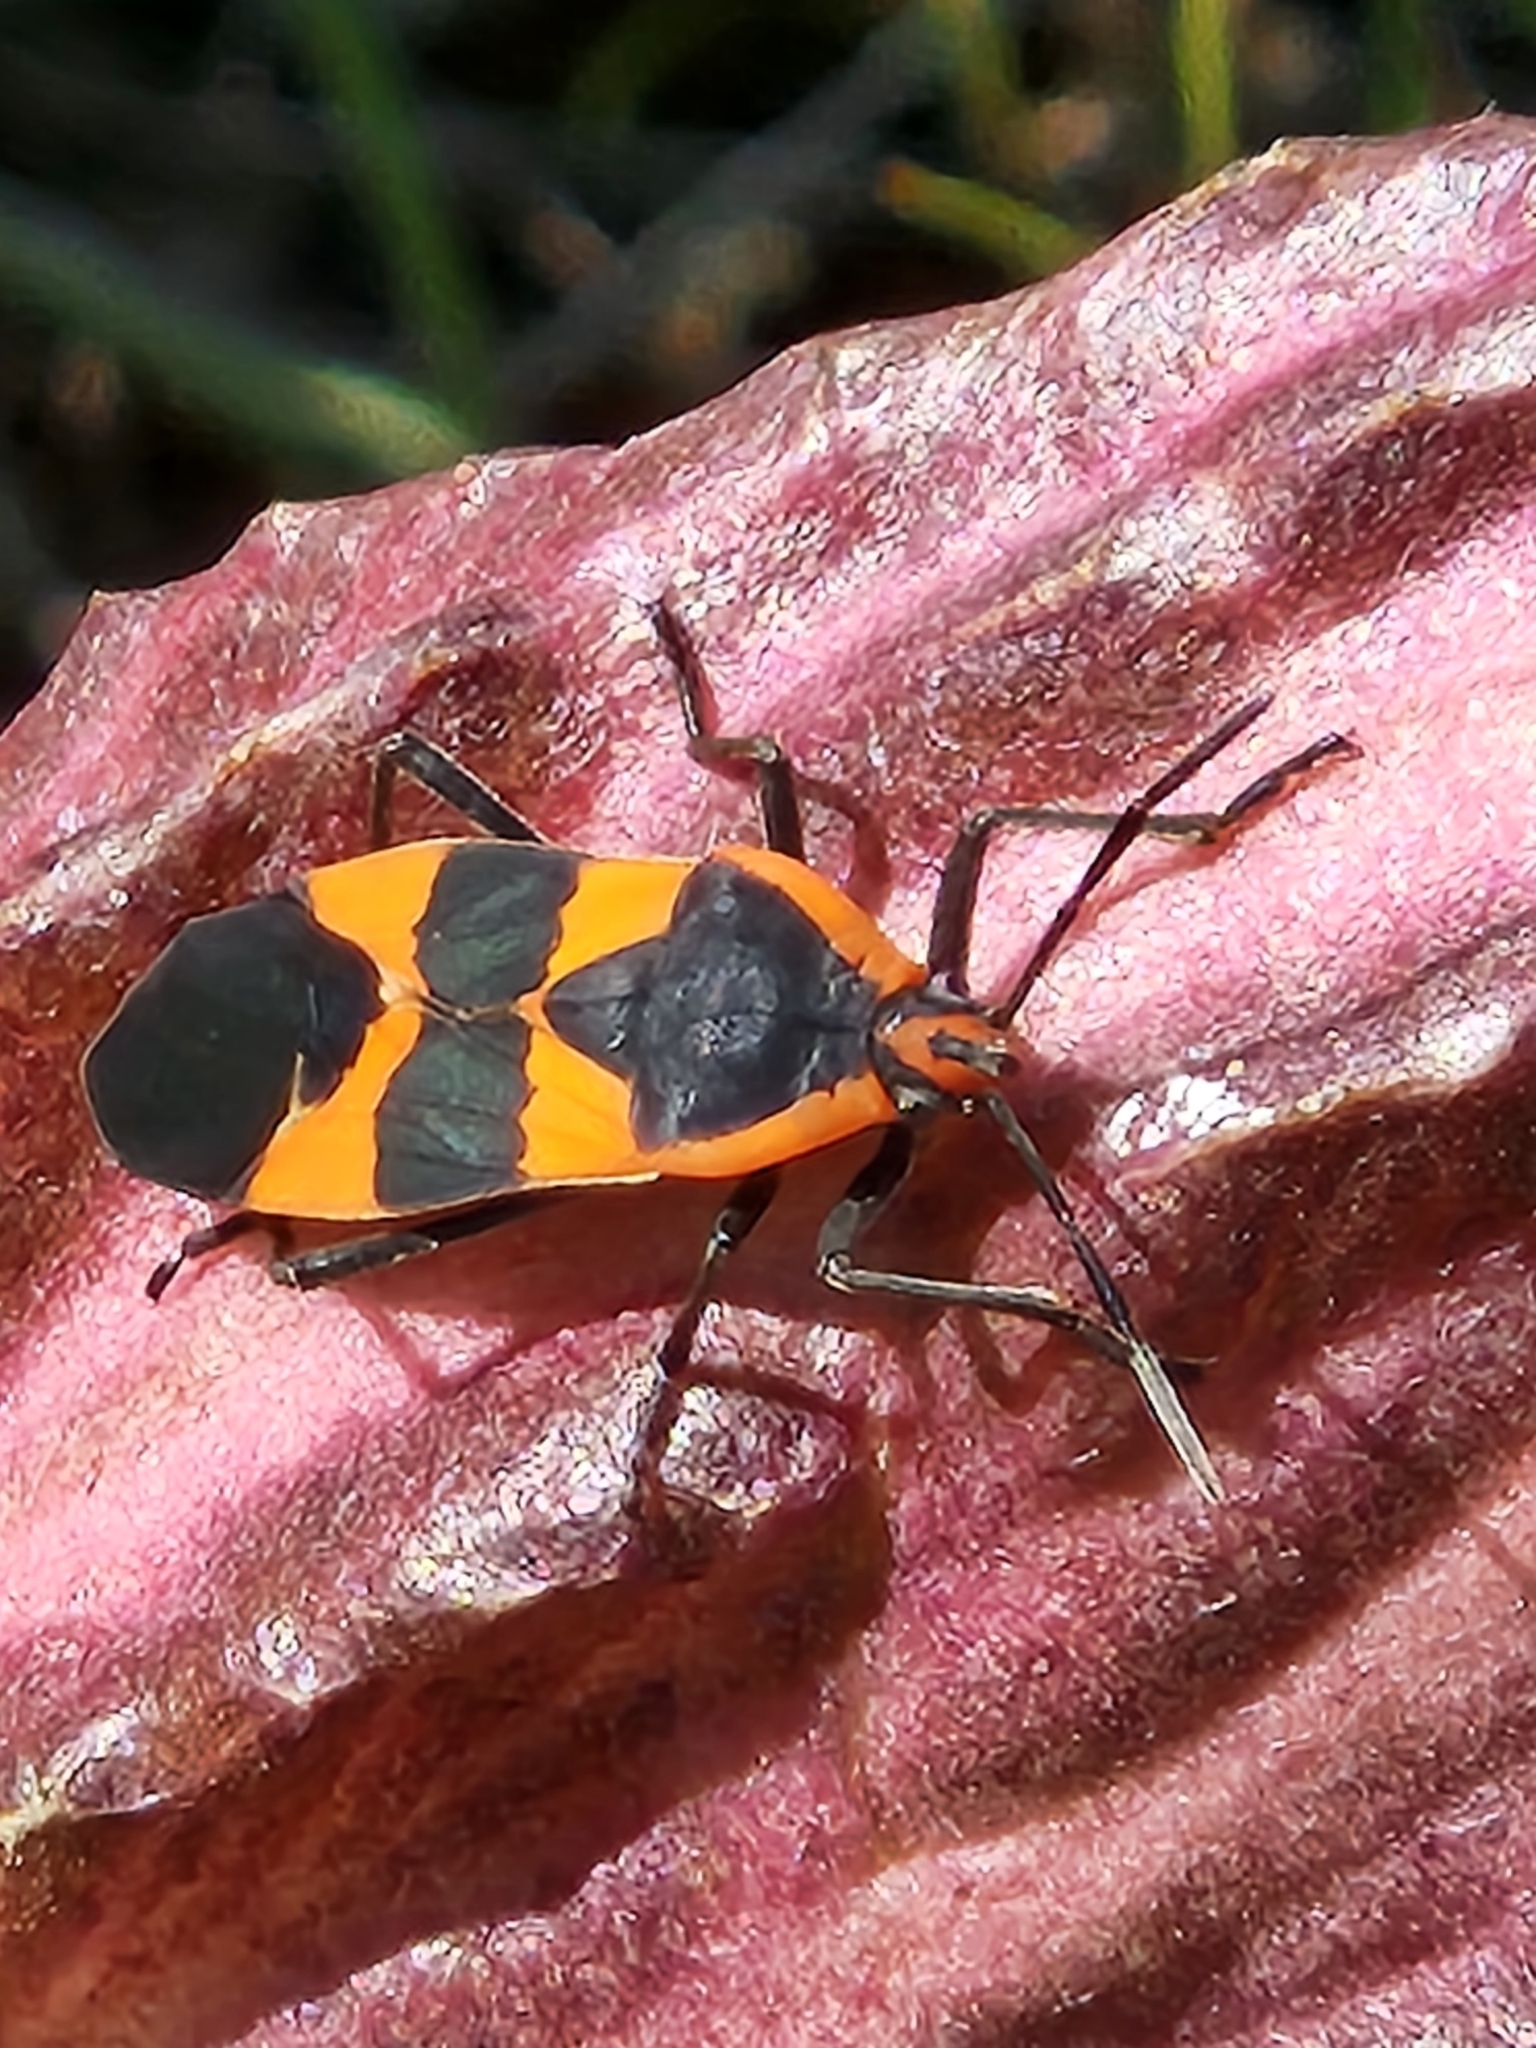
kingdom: Animalia
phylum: Arthropoda
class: Insecta
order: Hemiptera
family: Lygaeidae
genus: Oncopeltus
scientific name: Oncopeltus fasciatus
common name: Large milkweed bug
